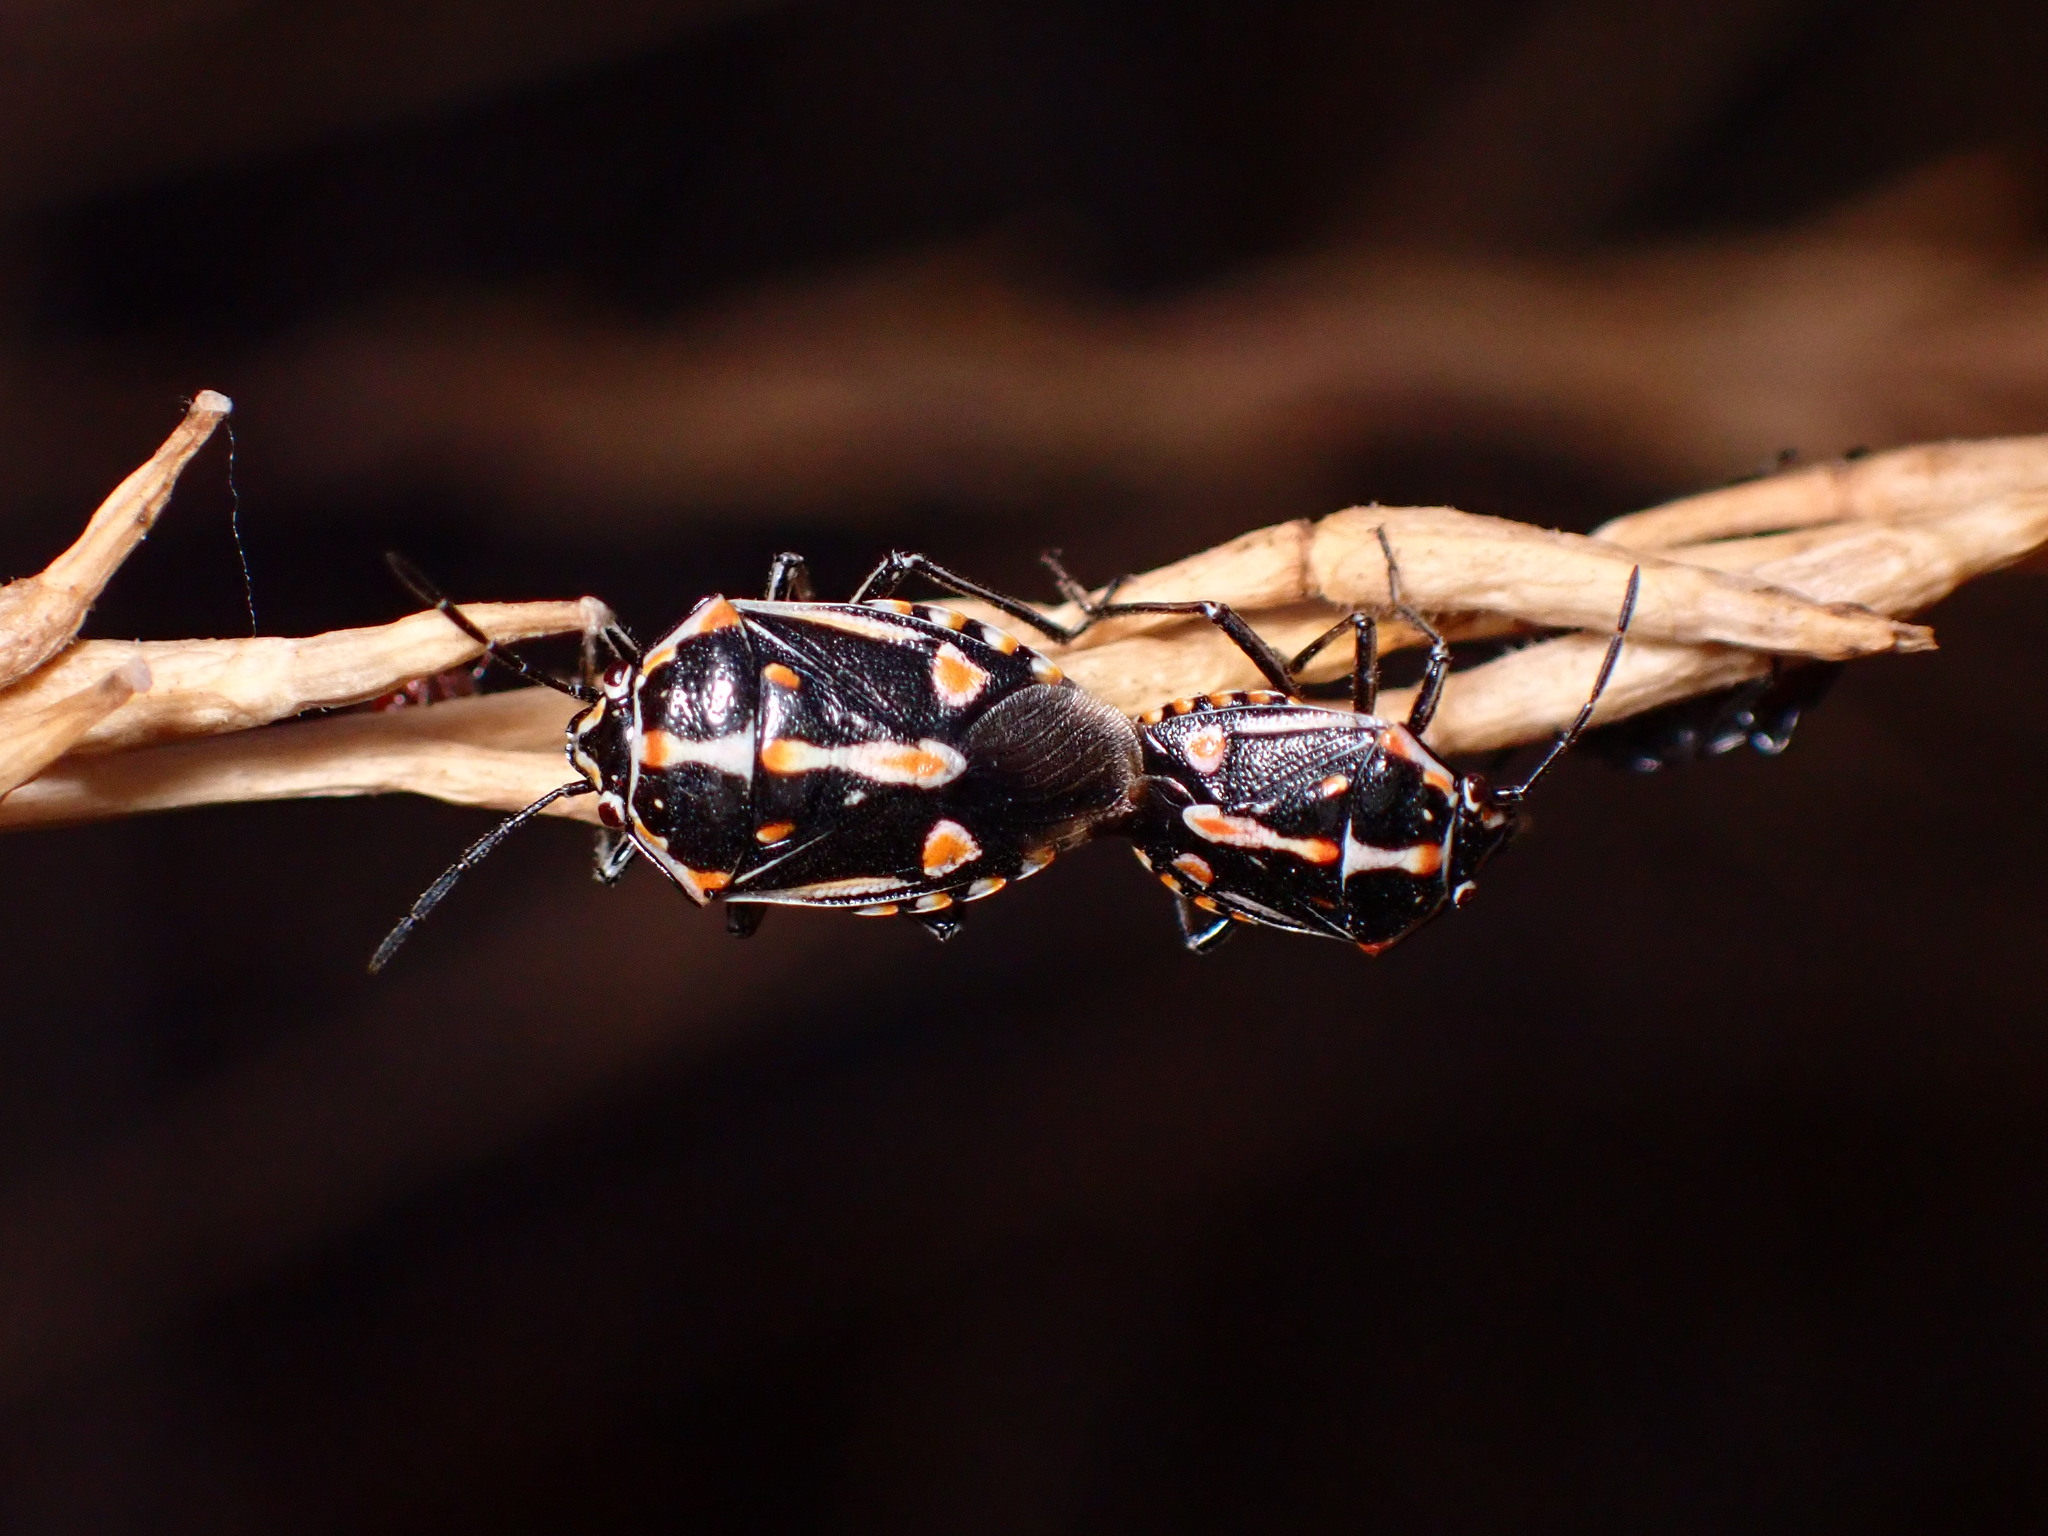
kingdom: Animalia
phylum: Arthropoda
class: Insecta
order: Hemiptera
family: Pentatomidae
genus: Bagrada
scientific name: Bagrada hilaris
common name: Bagrada bug
